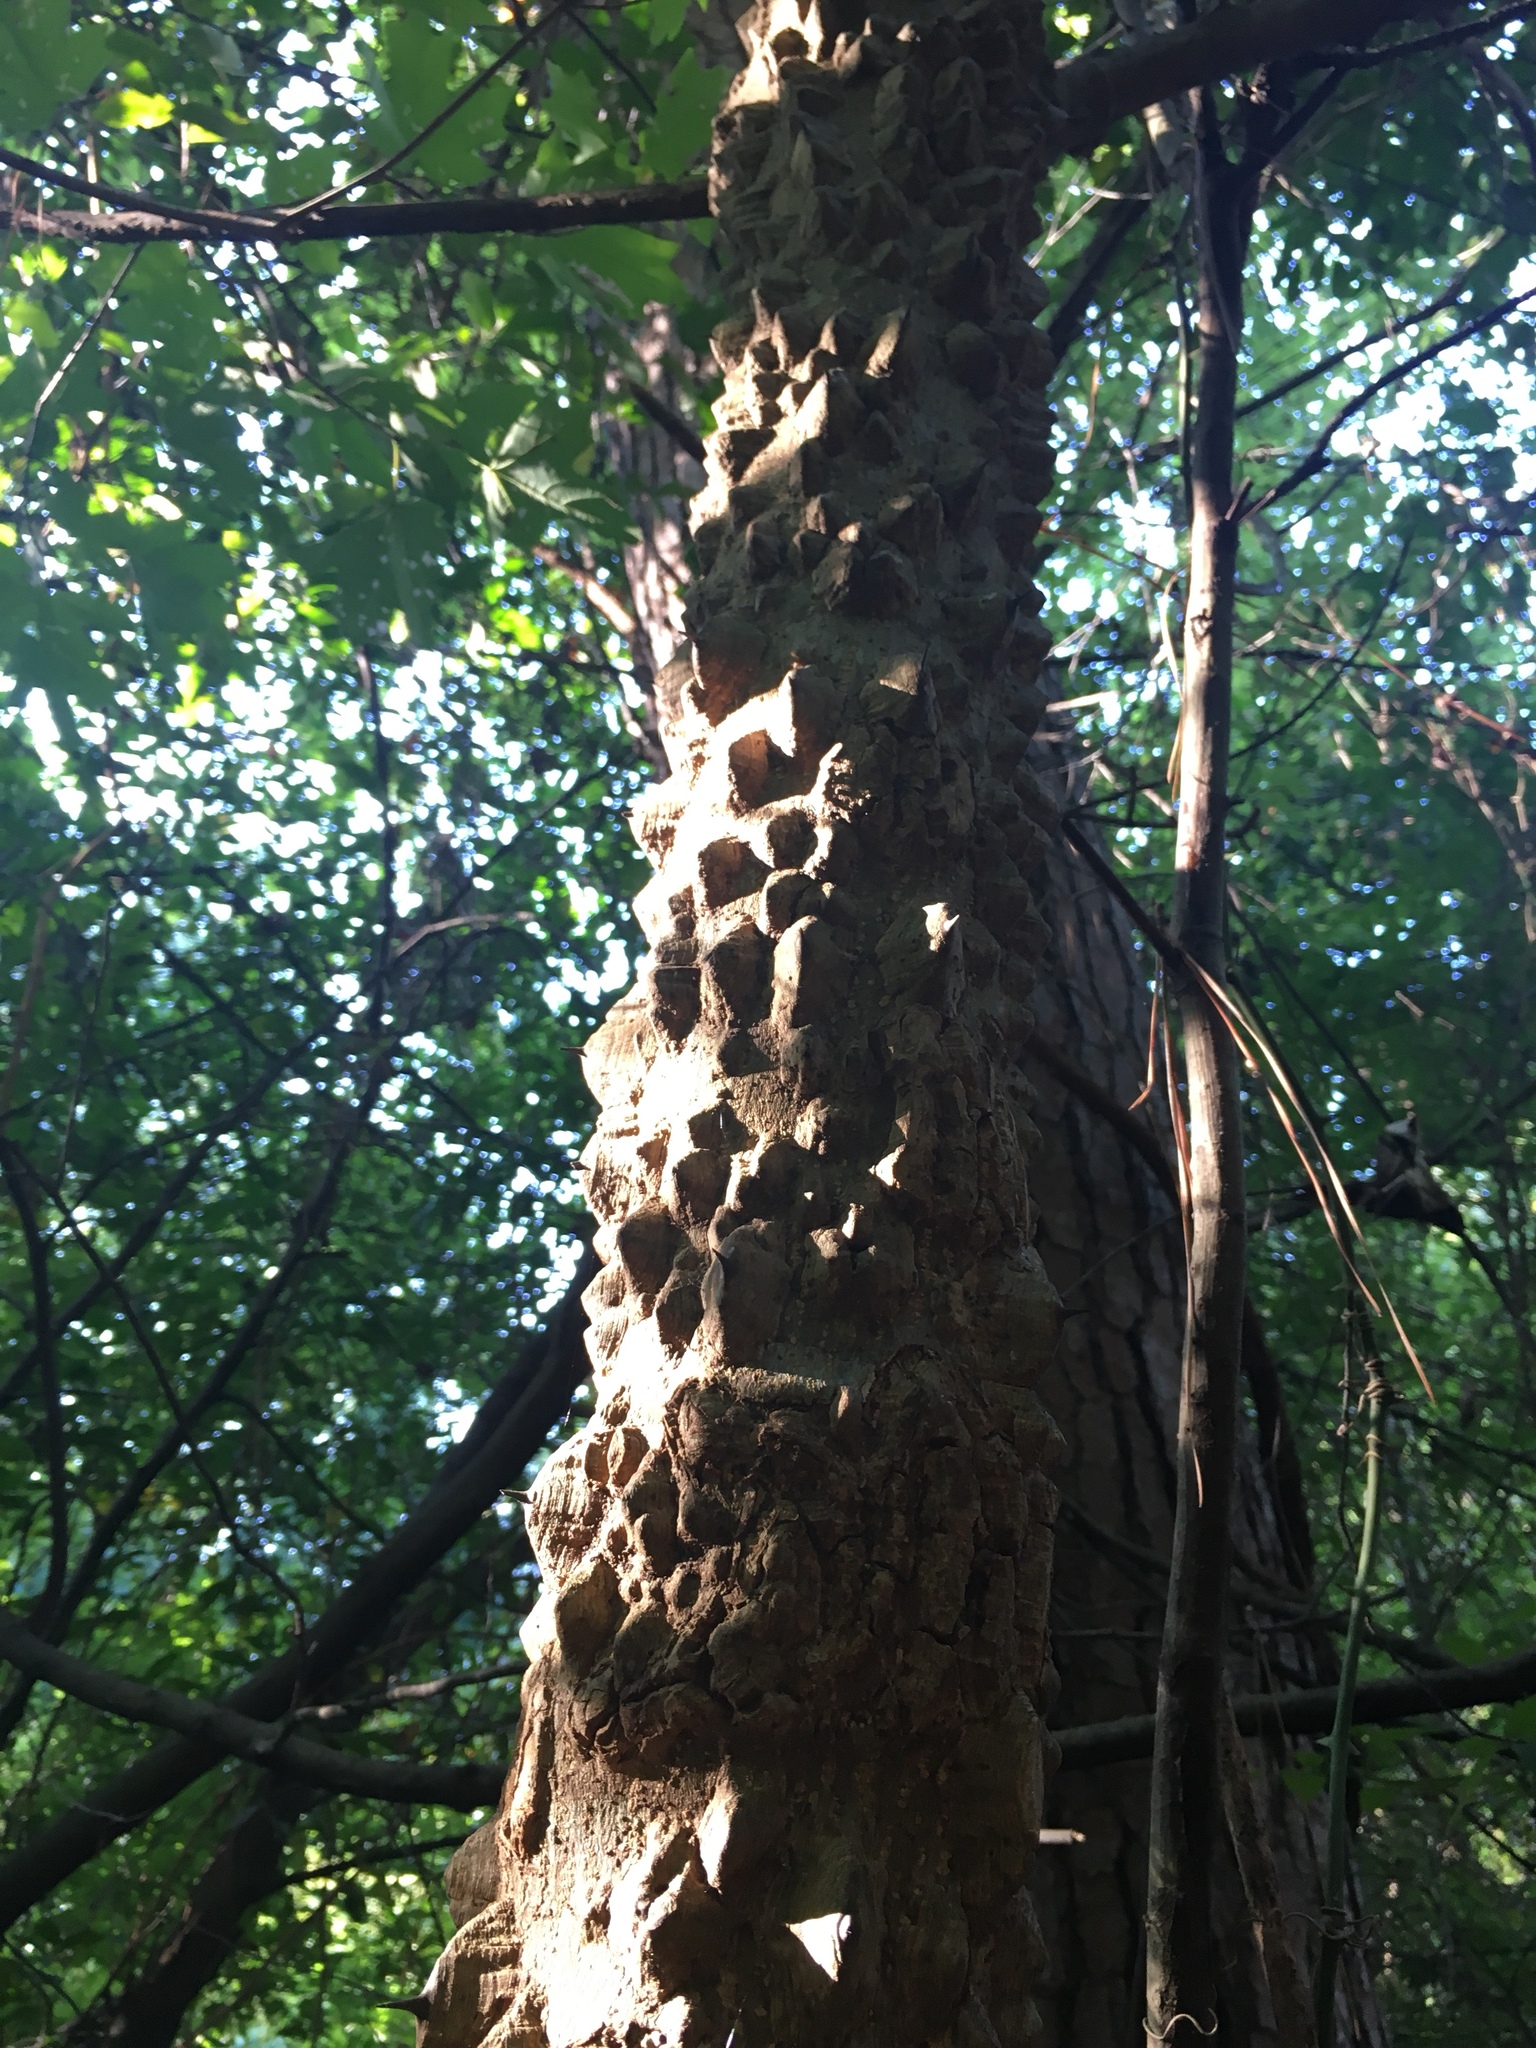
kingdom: Plantae
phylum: Tracheophyta
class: Magnoliopsida
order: Sapindales
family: Rutaceae
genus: Zanthoxylum
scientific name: Zanthoxylum clava-herculis
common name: Hercules'-club
